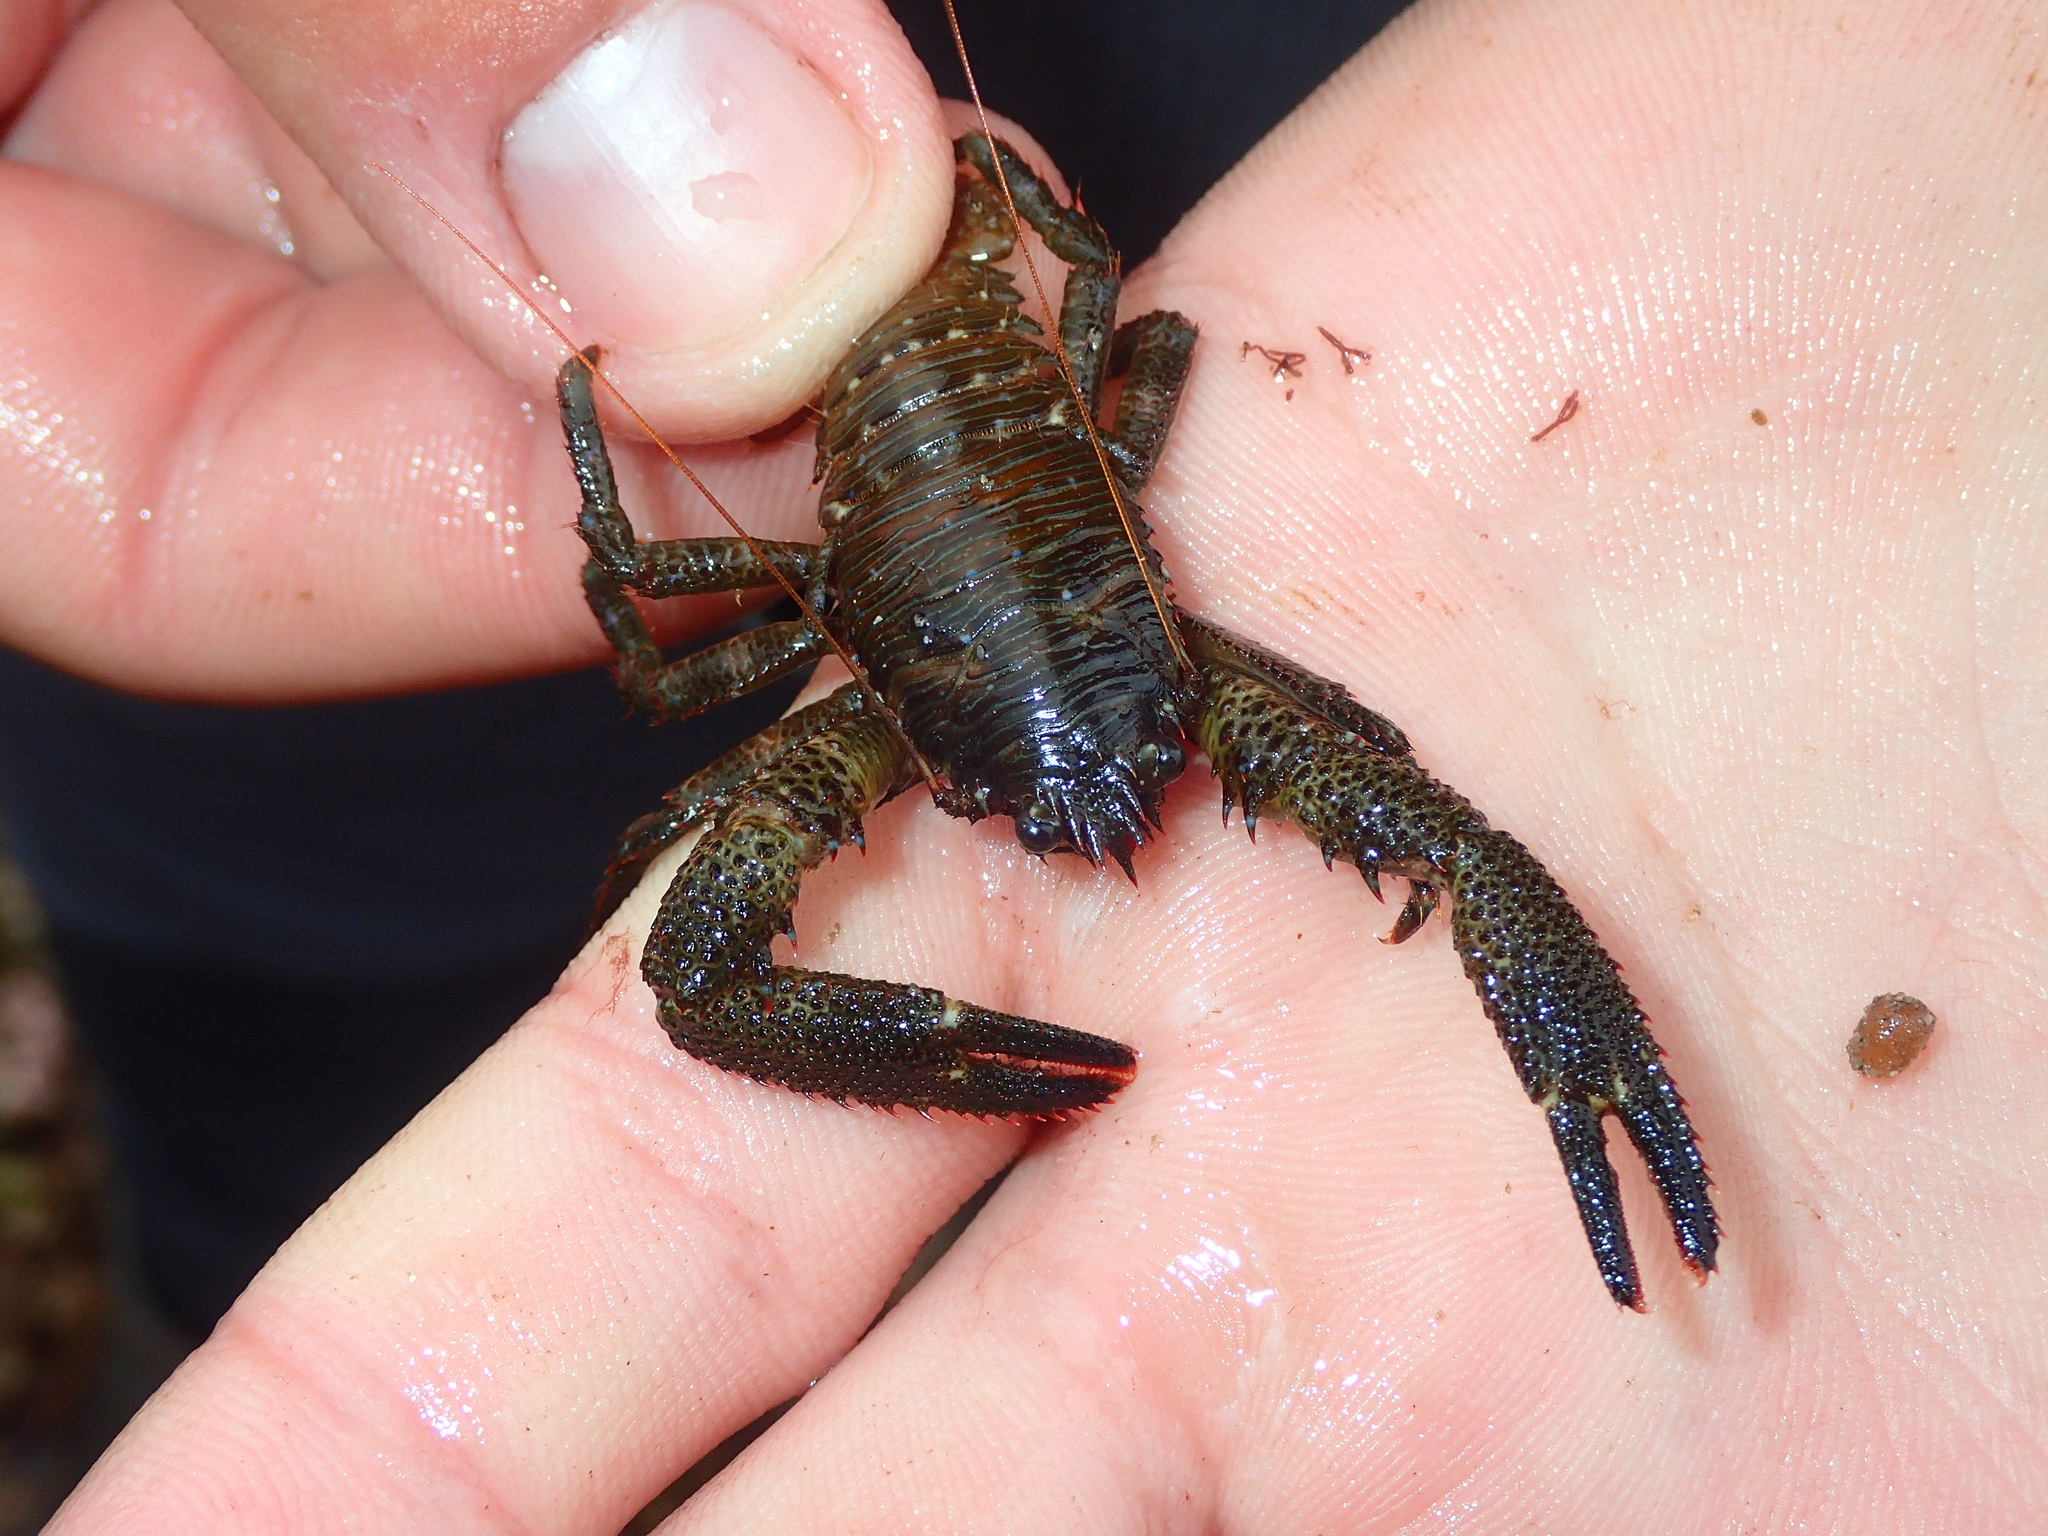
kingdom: Animalia
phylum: Arthropoda
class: Malacostraca
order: Decapoda
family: Galatheidae
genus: Galathea
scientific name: Galathea squamifera
